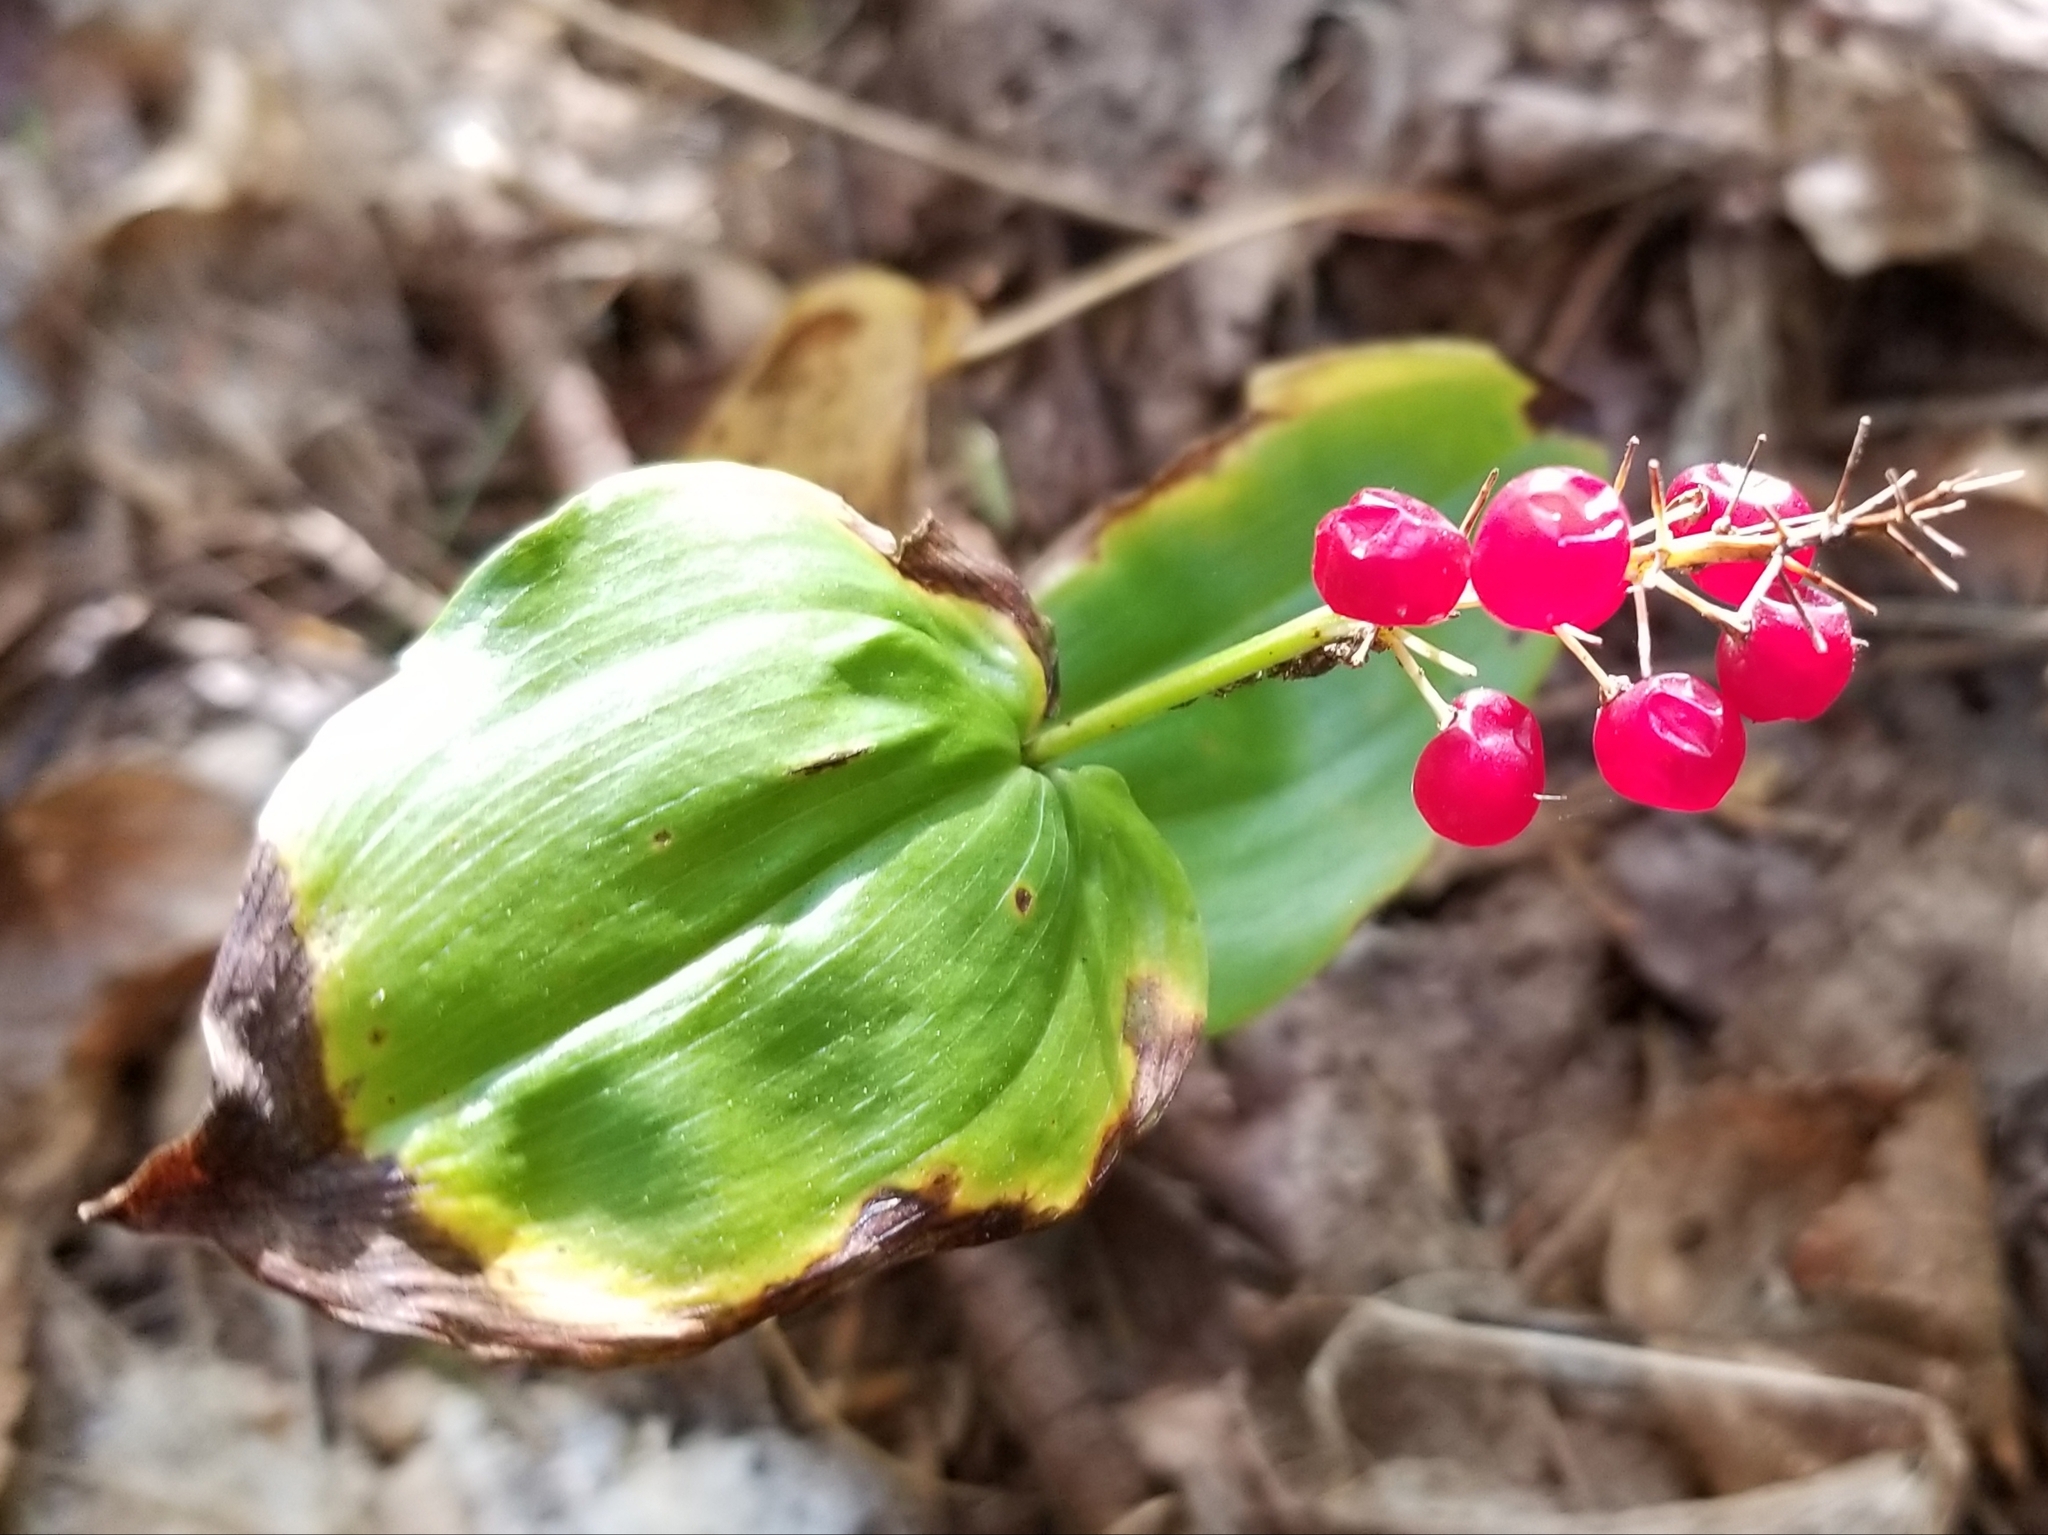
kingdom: Plantae
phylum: Tracheophyta
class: Liliopsida
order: Asparagales
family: Asparagaceae
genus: Maianthemum
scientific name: Maianthemum canadense
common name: False lily-of-the-valley
